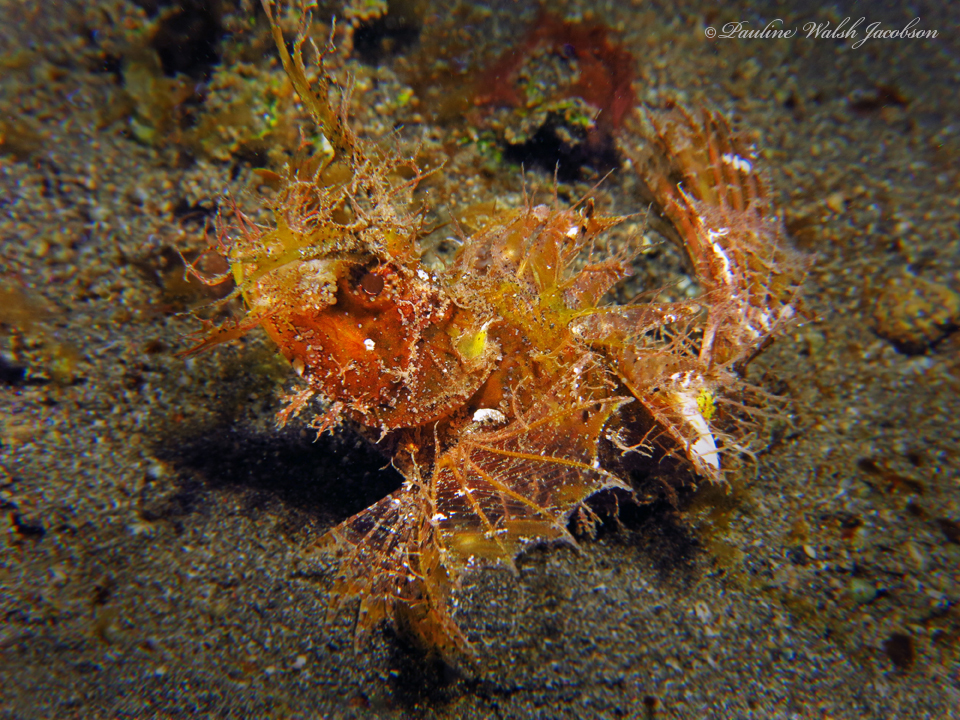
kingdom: Animalia
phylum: Chordata
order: Scorpaeniformes
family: Scorpaenidae
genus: Pteroidichthys
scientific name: Pteroidichthys amboinensis
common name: Ambon scorpionfish
